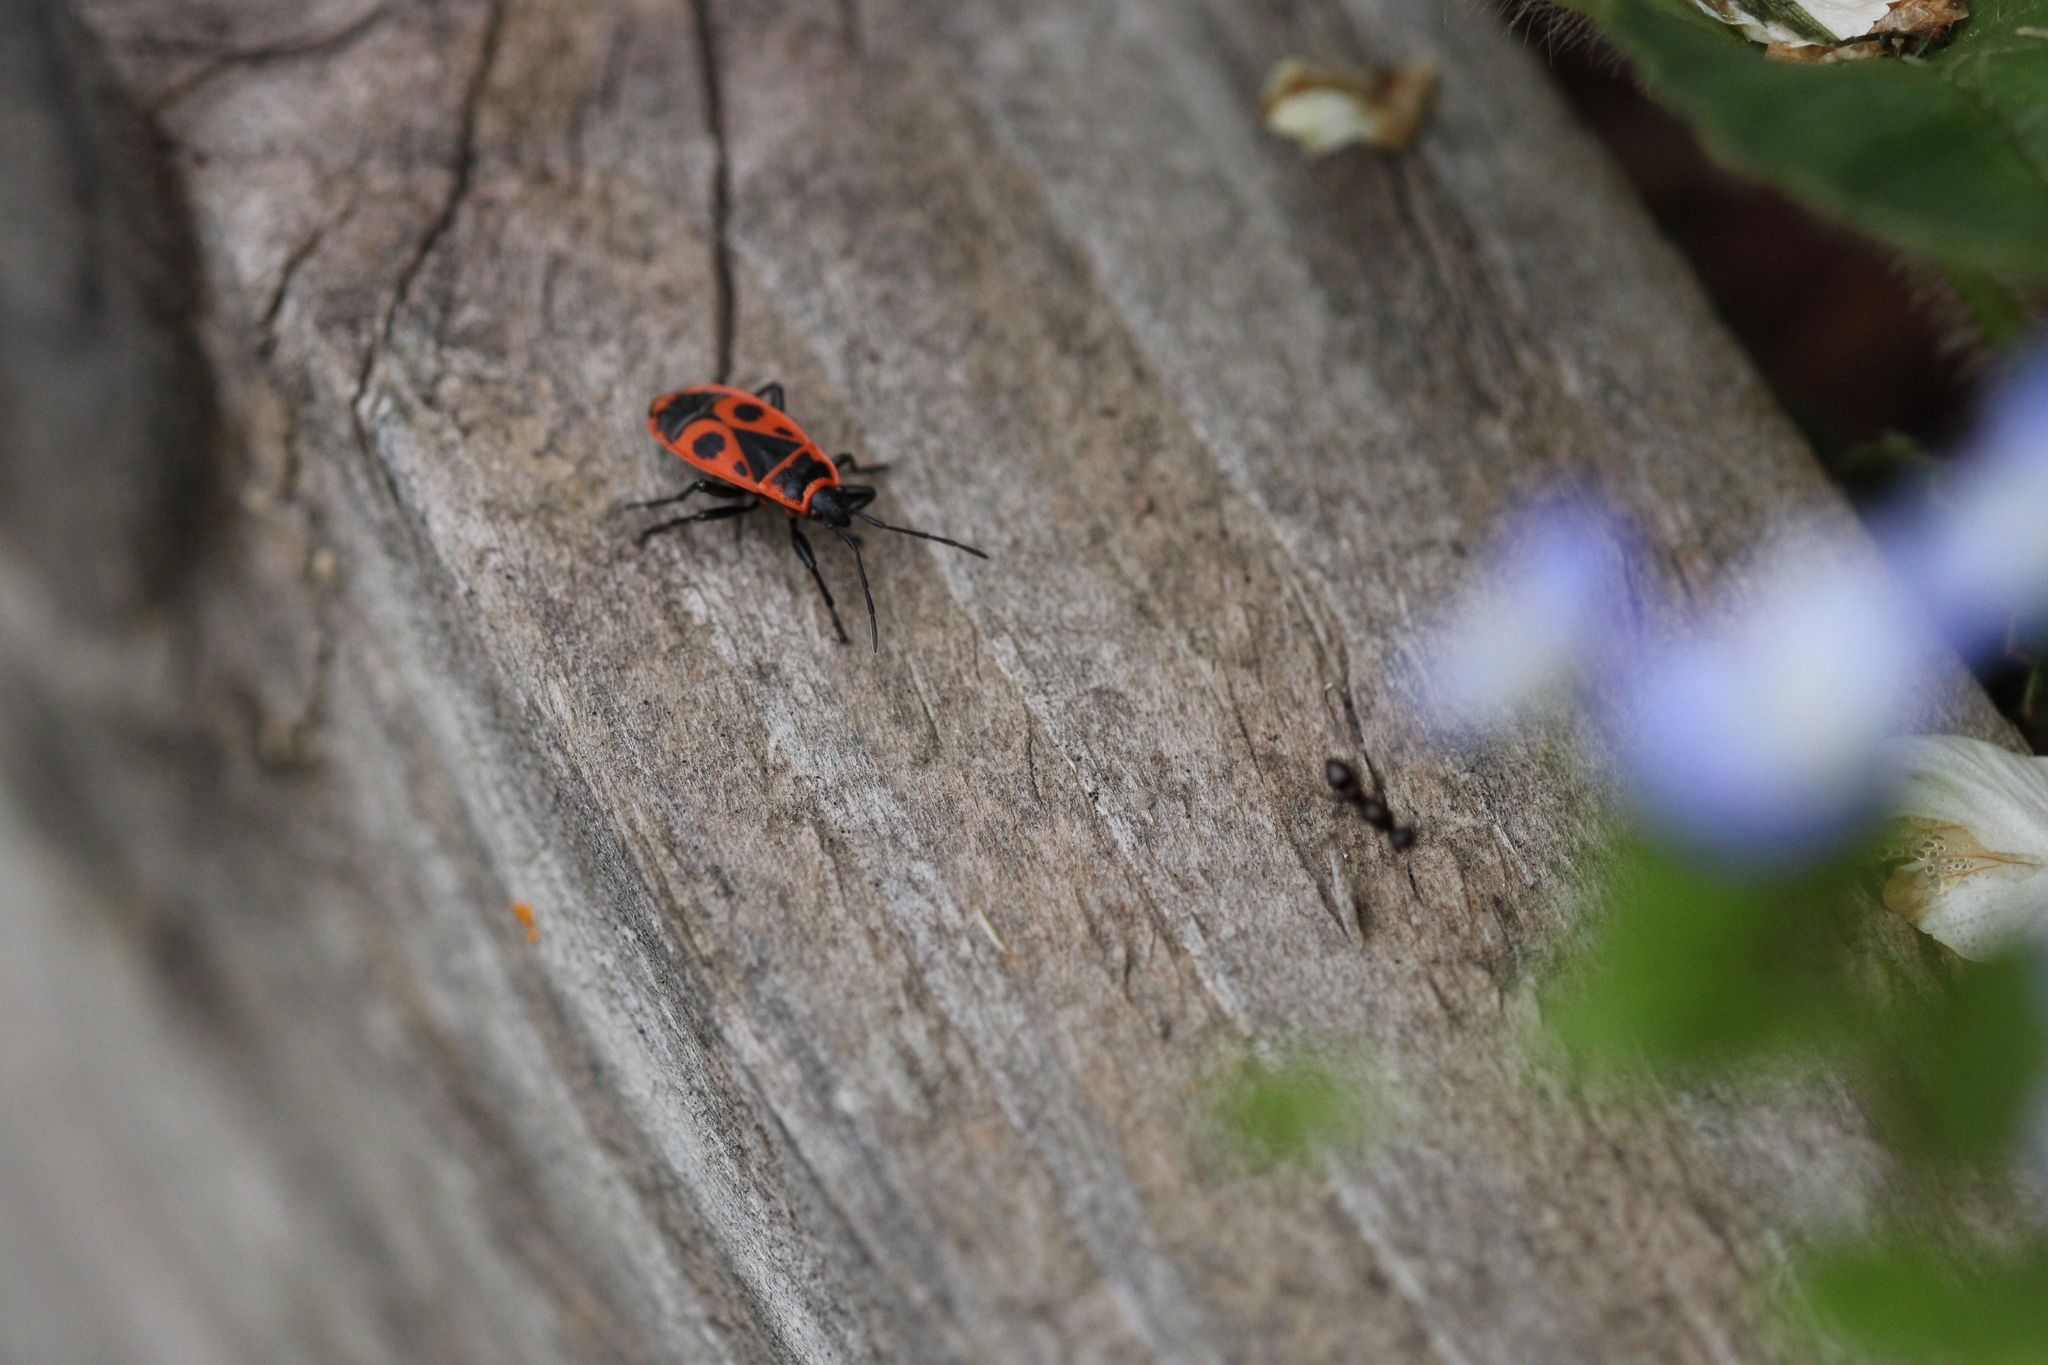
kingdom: Animalia
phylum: Arthropoda
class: Insecta
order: Hemiptera
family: Pyrrhocoridae
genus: Pyrrhocoris
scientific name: Pyrrhocoris apterus
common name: Firebug
